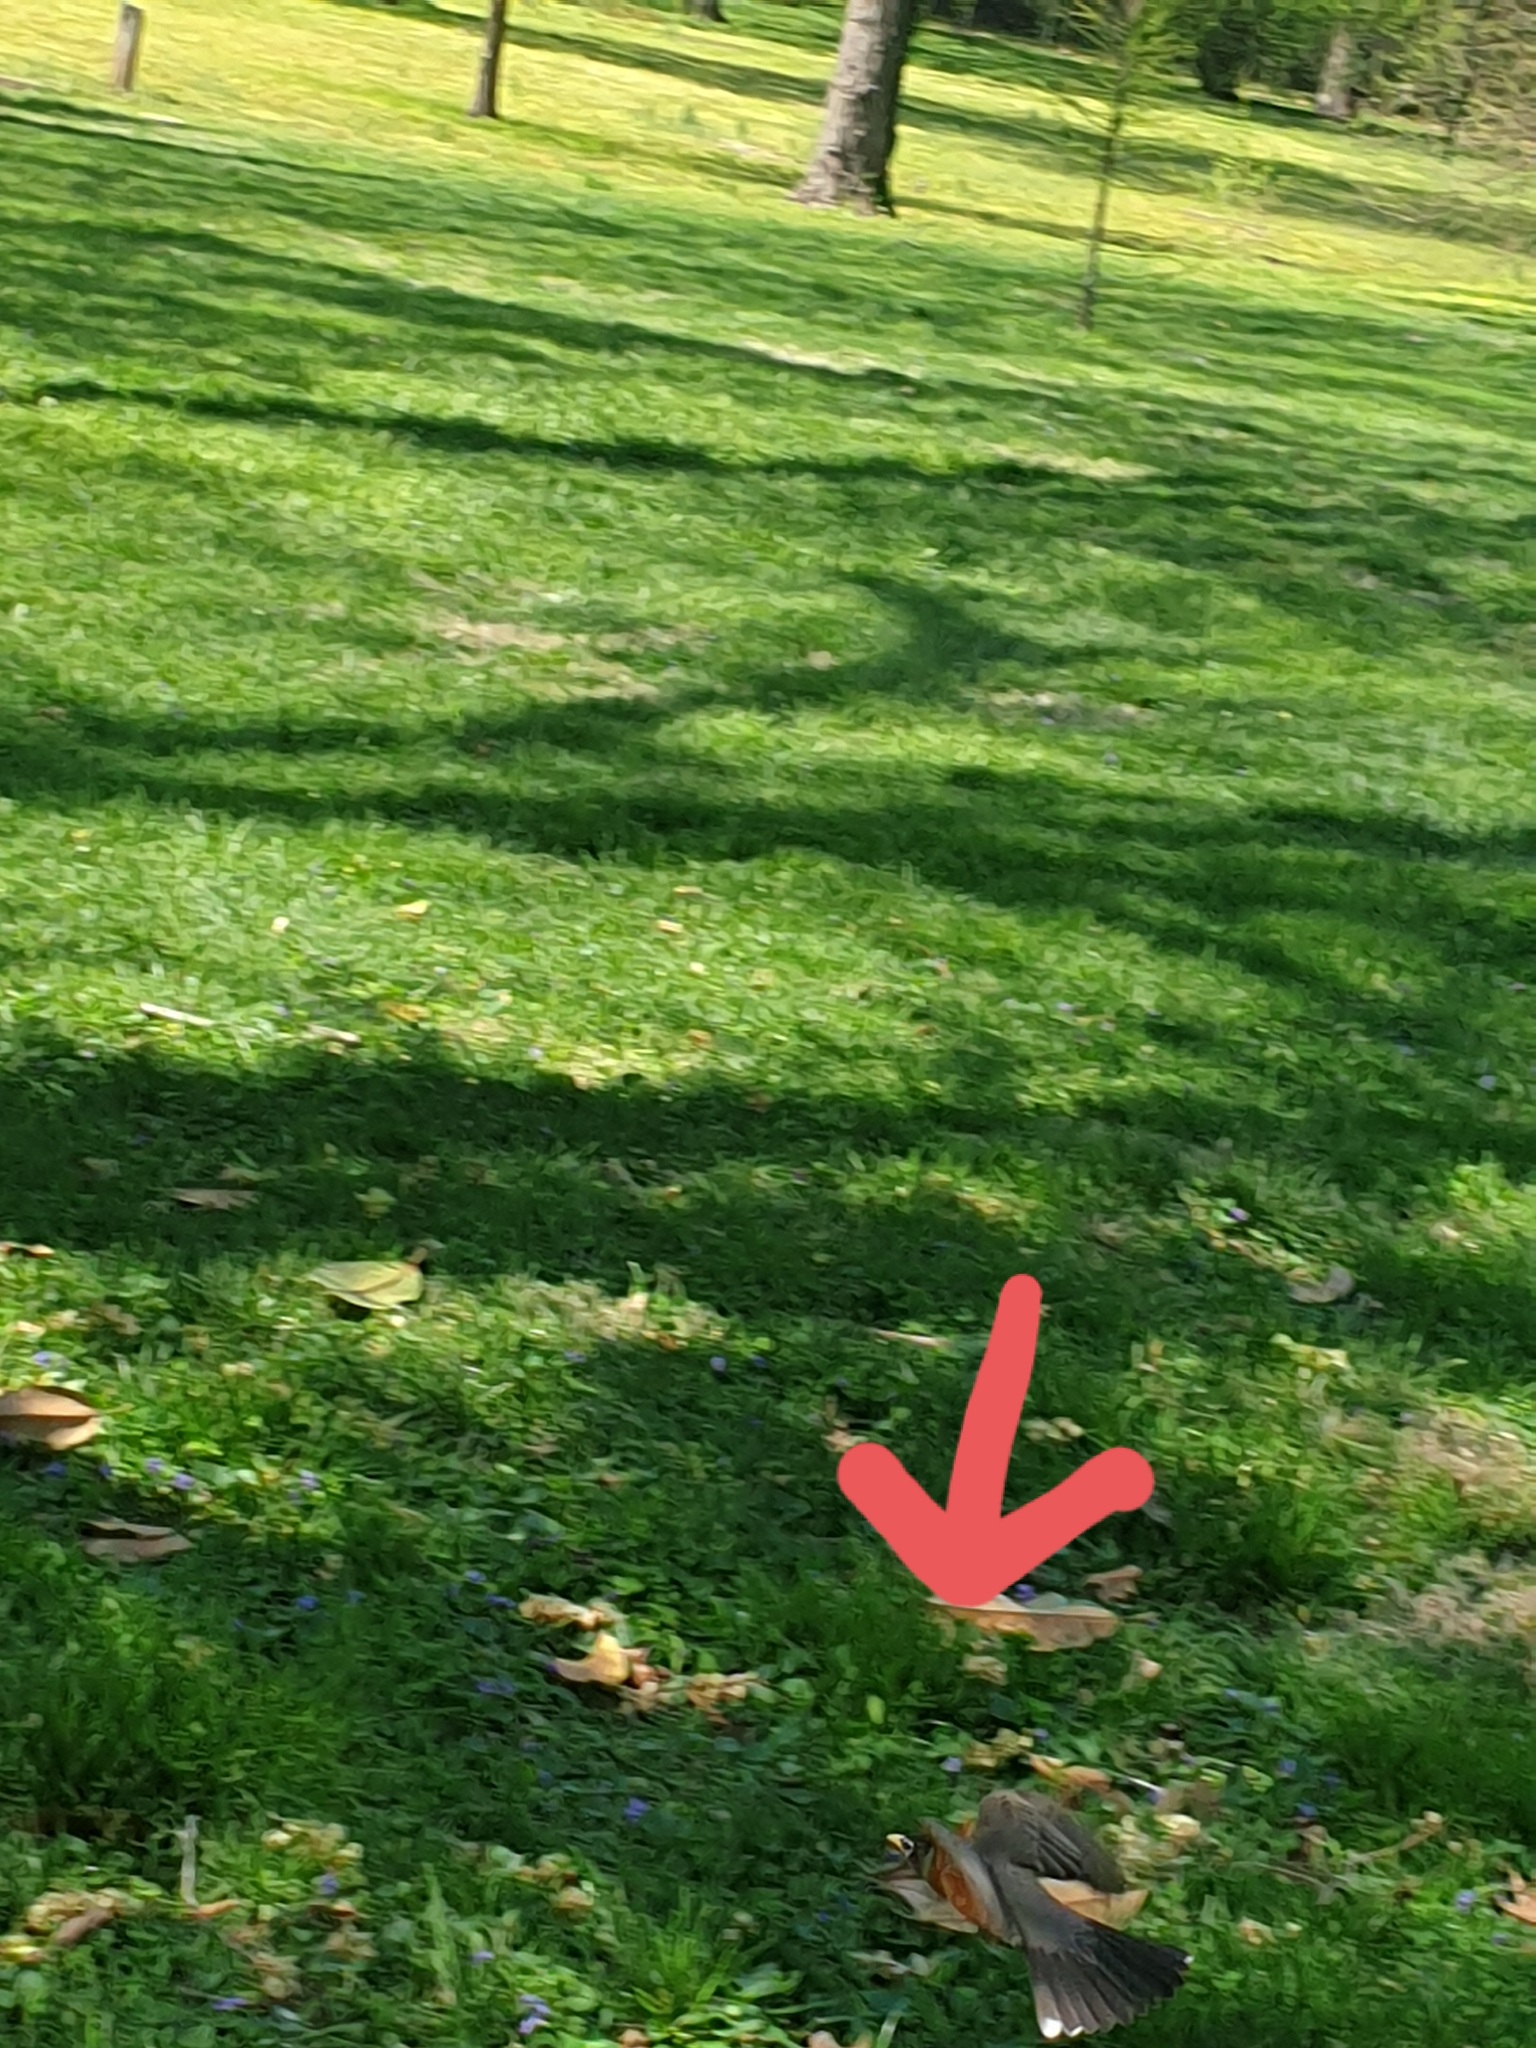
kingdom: Animalia
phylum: Chordata
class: Aves
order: Passeriformes
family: Turdidae
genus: Turdus
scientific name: Turdus migratorius
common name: American robin
